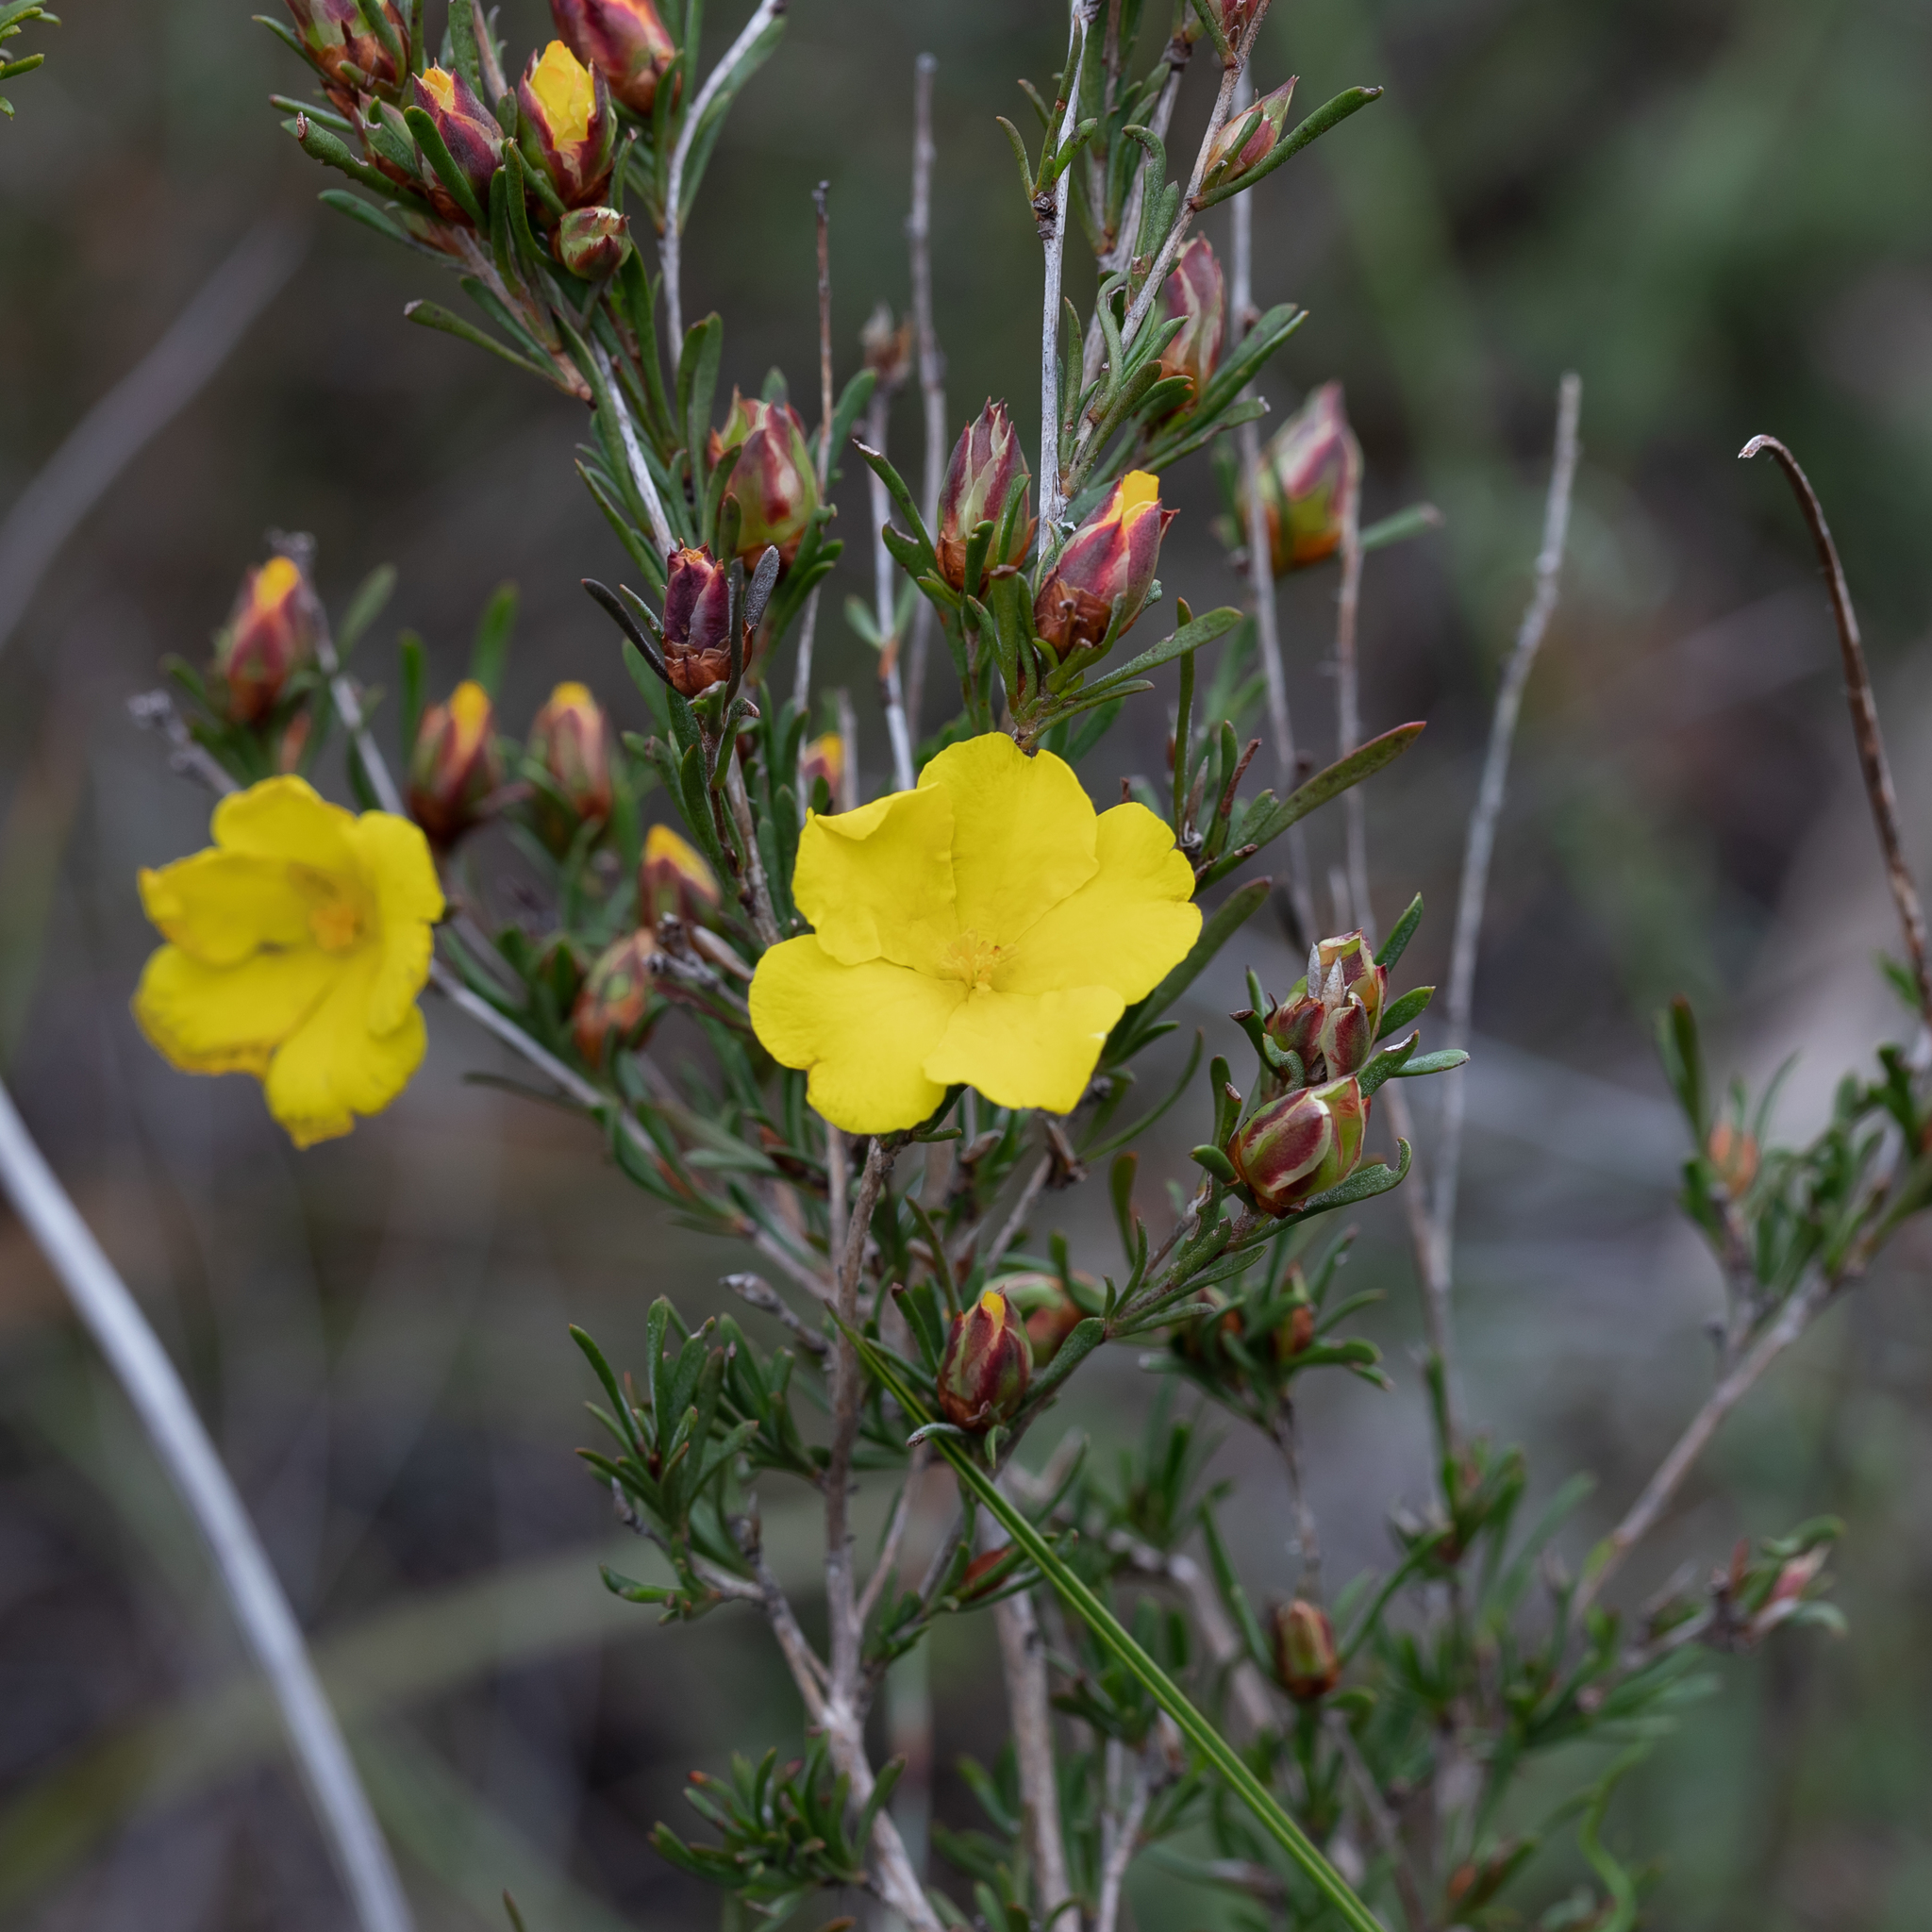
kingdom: Plantae
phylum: Tracheophyta
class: Magnoliopsida
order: Dilleniales
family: Dilleniaceae
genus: Hibbertia
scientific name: Hibbertia virgata
